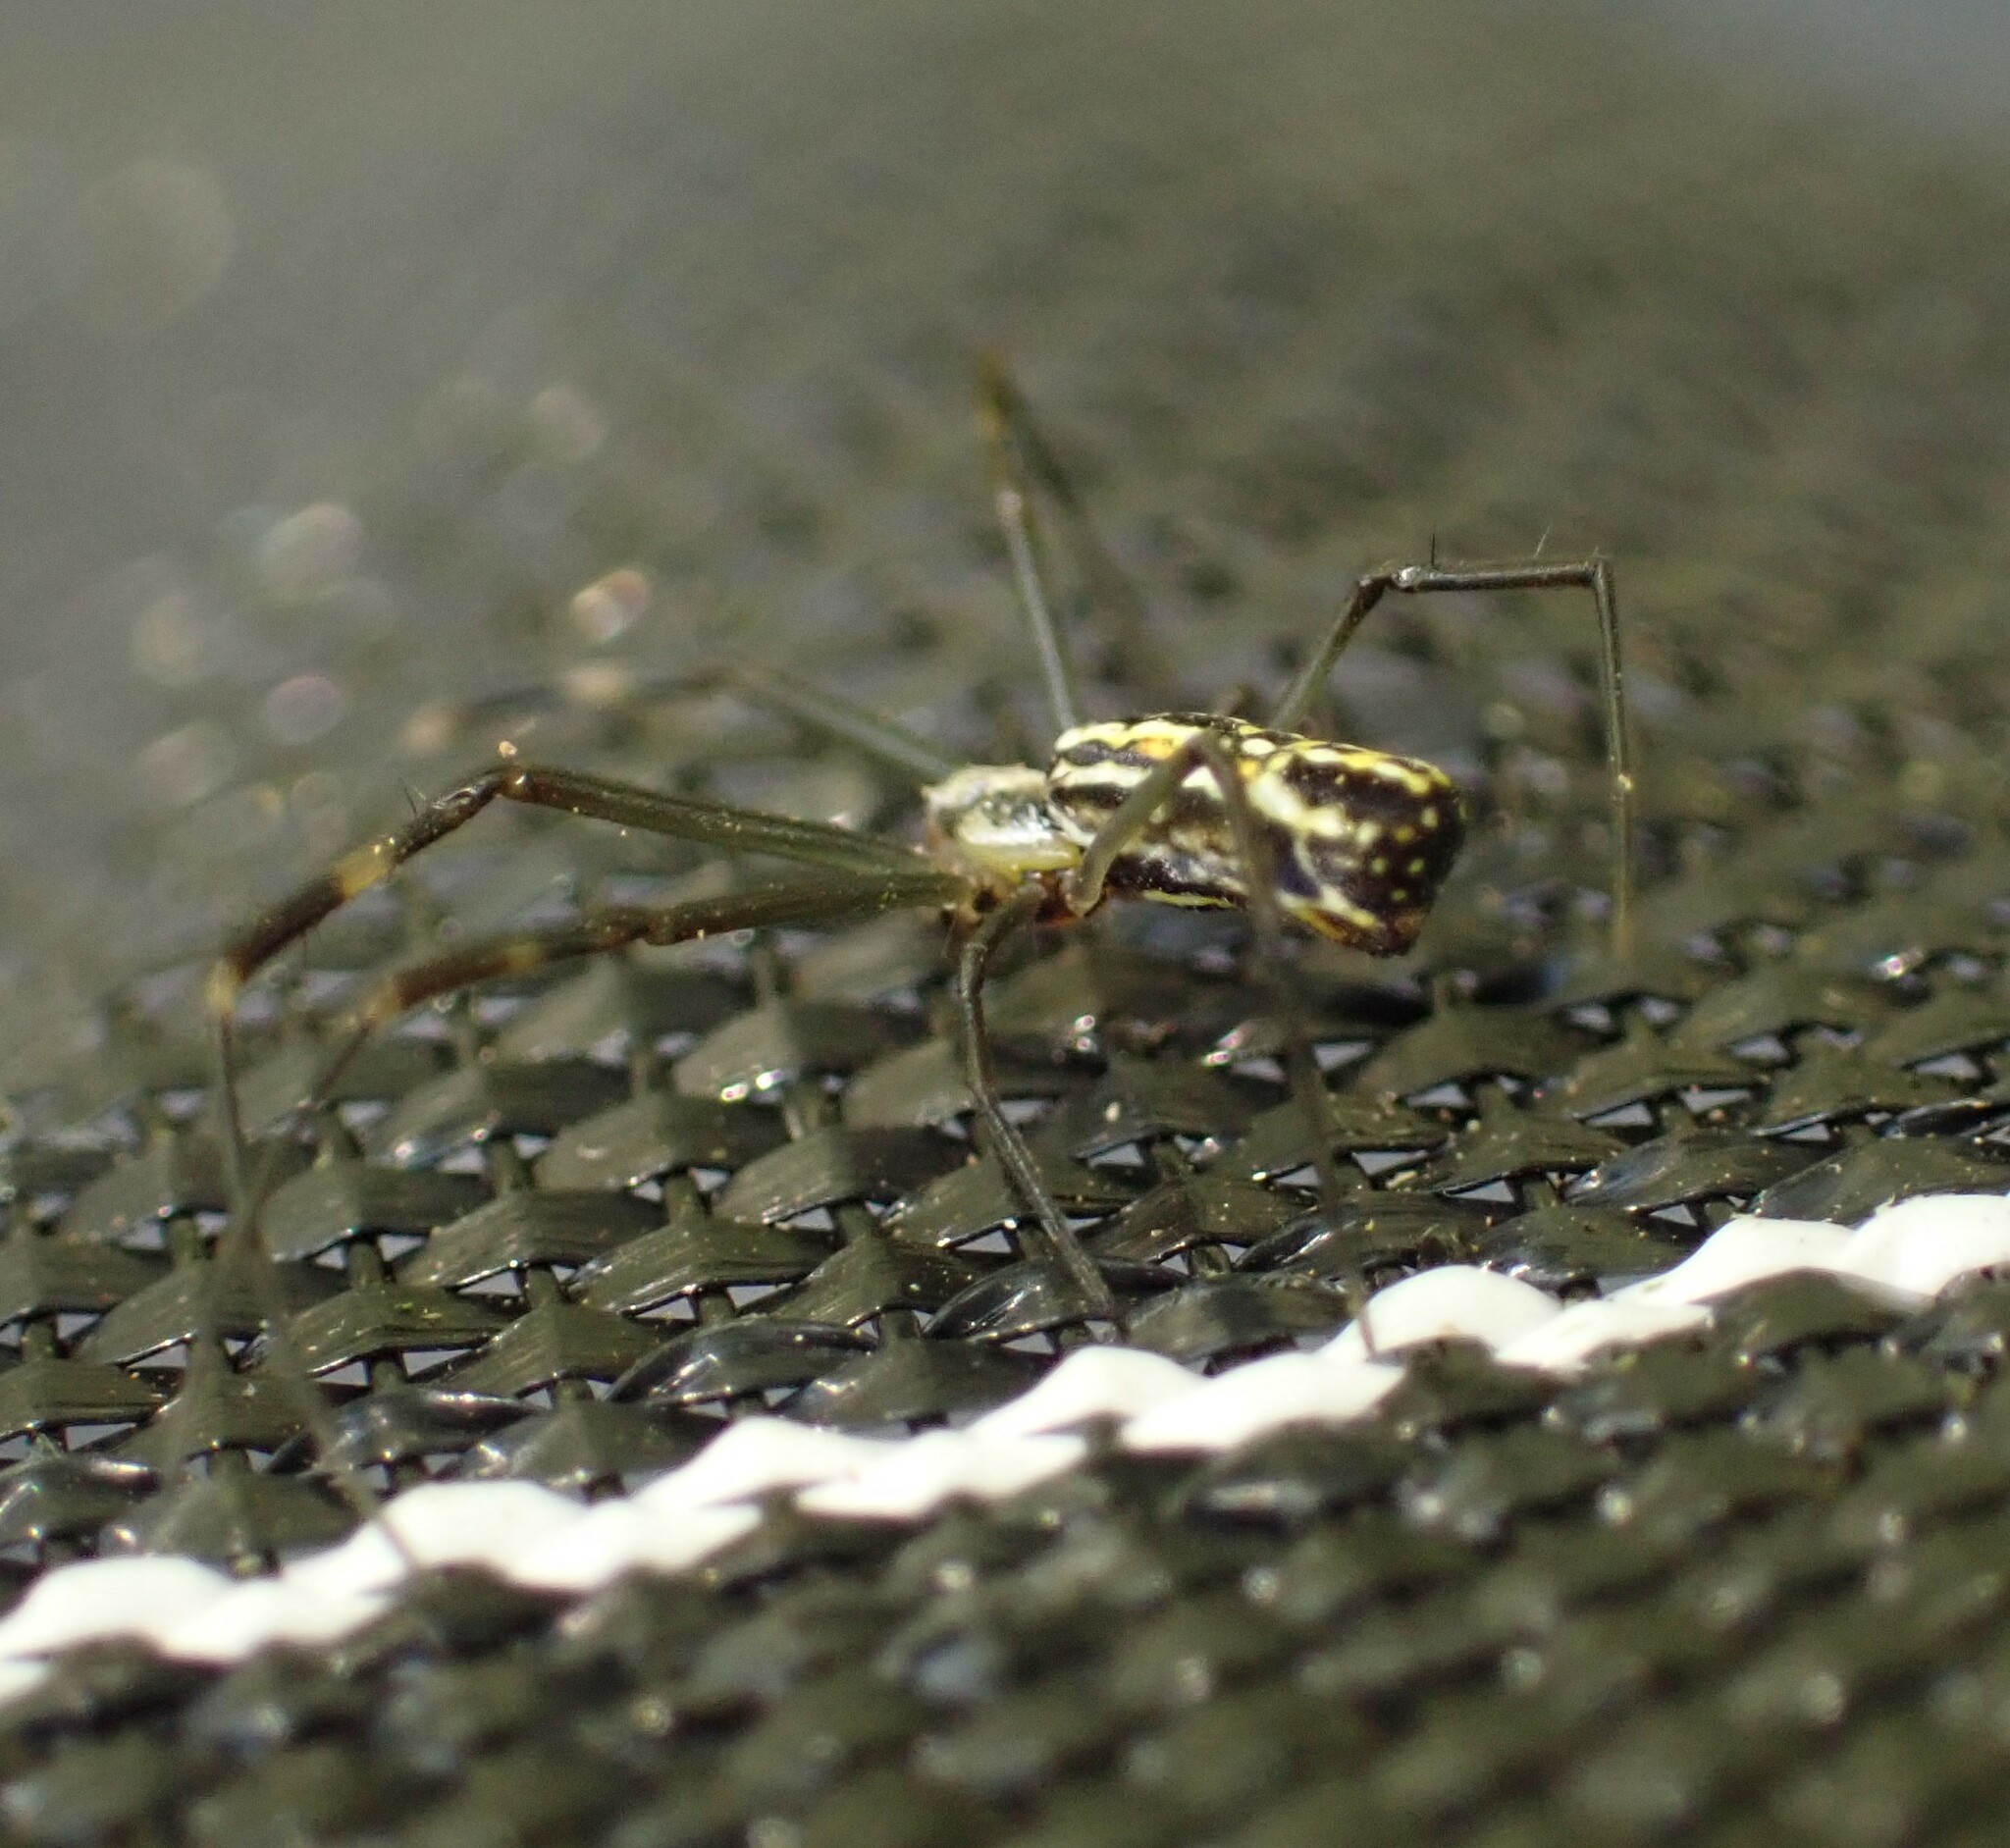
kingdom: Animalia
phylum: Arthropoda
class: Arachnida
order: Araneae
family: Araneidae
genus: Trichonephila
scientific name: Trichonephila clavipes
